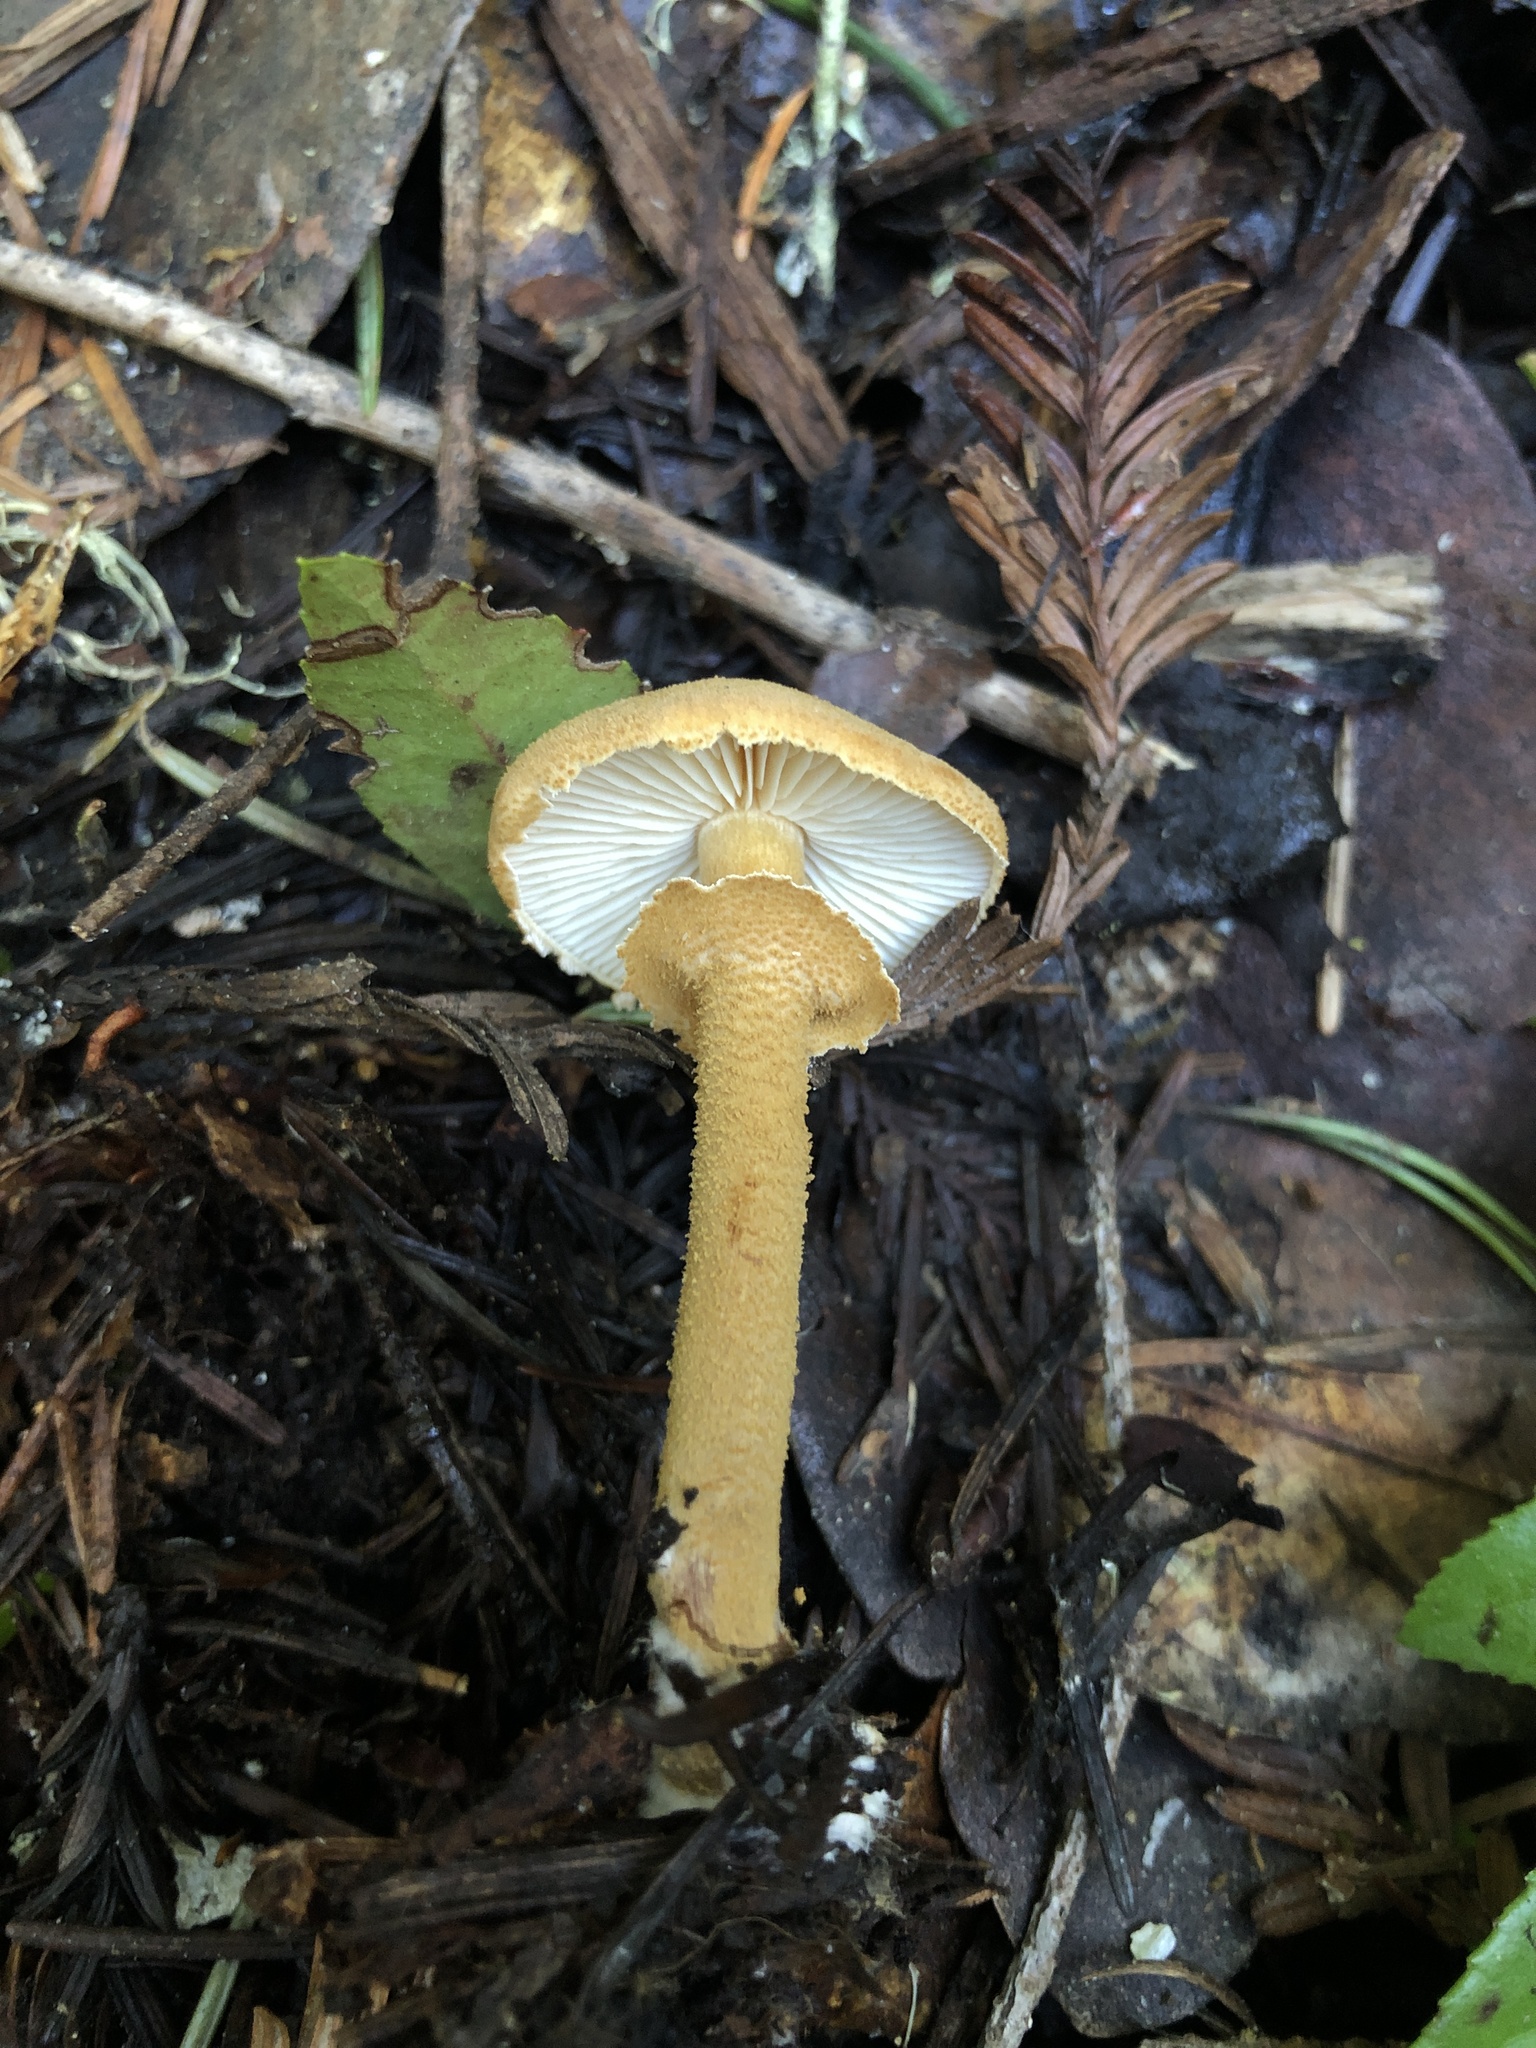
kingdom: Fungi
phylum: Basidiomycota
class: Agaricomycetes
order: Agaricales
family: Tricholomataceae
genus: Cystoderma
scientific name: Cystoderma fallax
